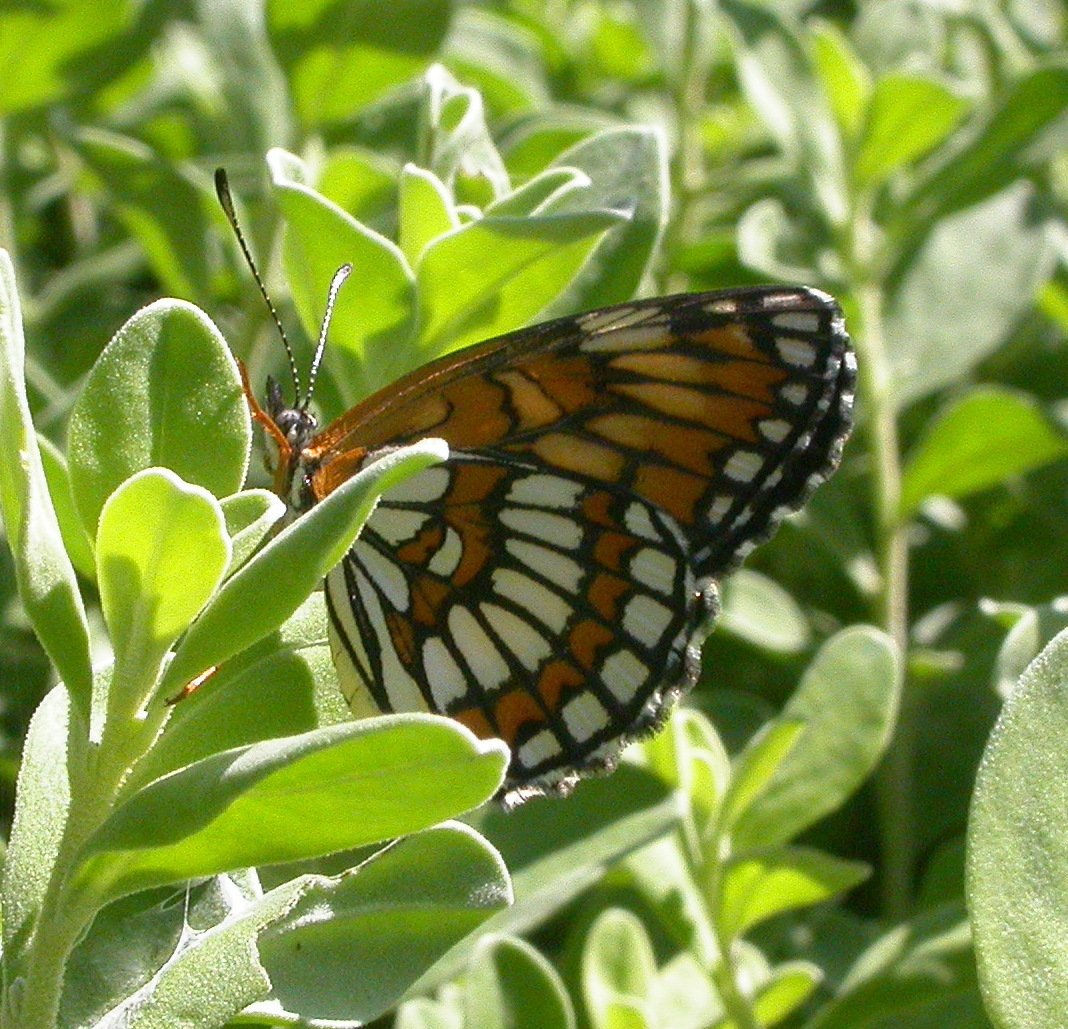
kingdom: Animalia
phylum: Arthropoda
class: Insecta
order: Lepidoptera
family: Nymphalidae
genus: Thessalia
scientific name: Thessalia theona
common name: Nymphalid moth
